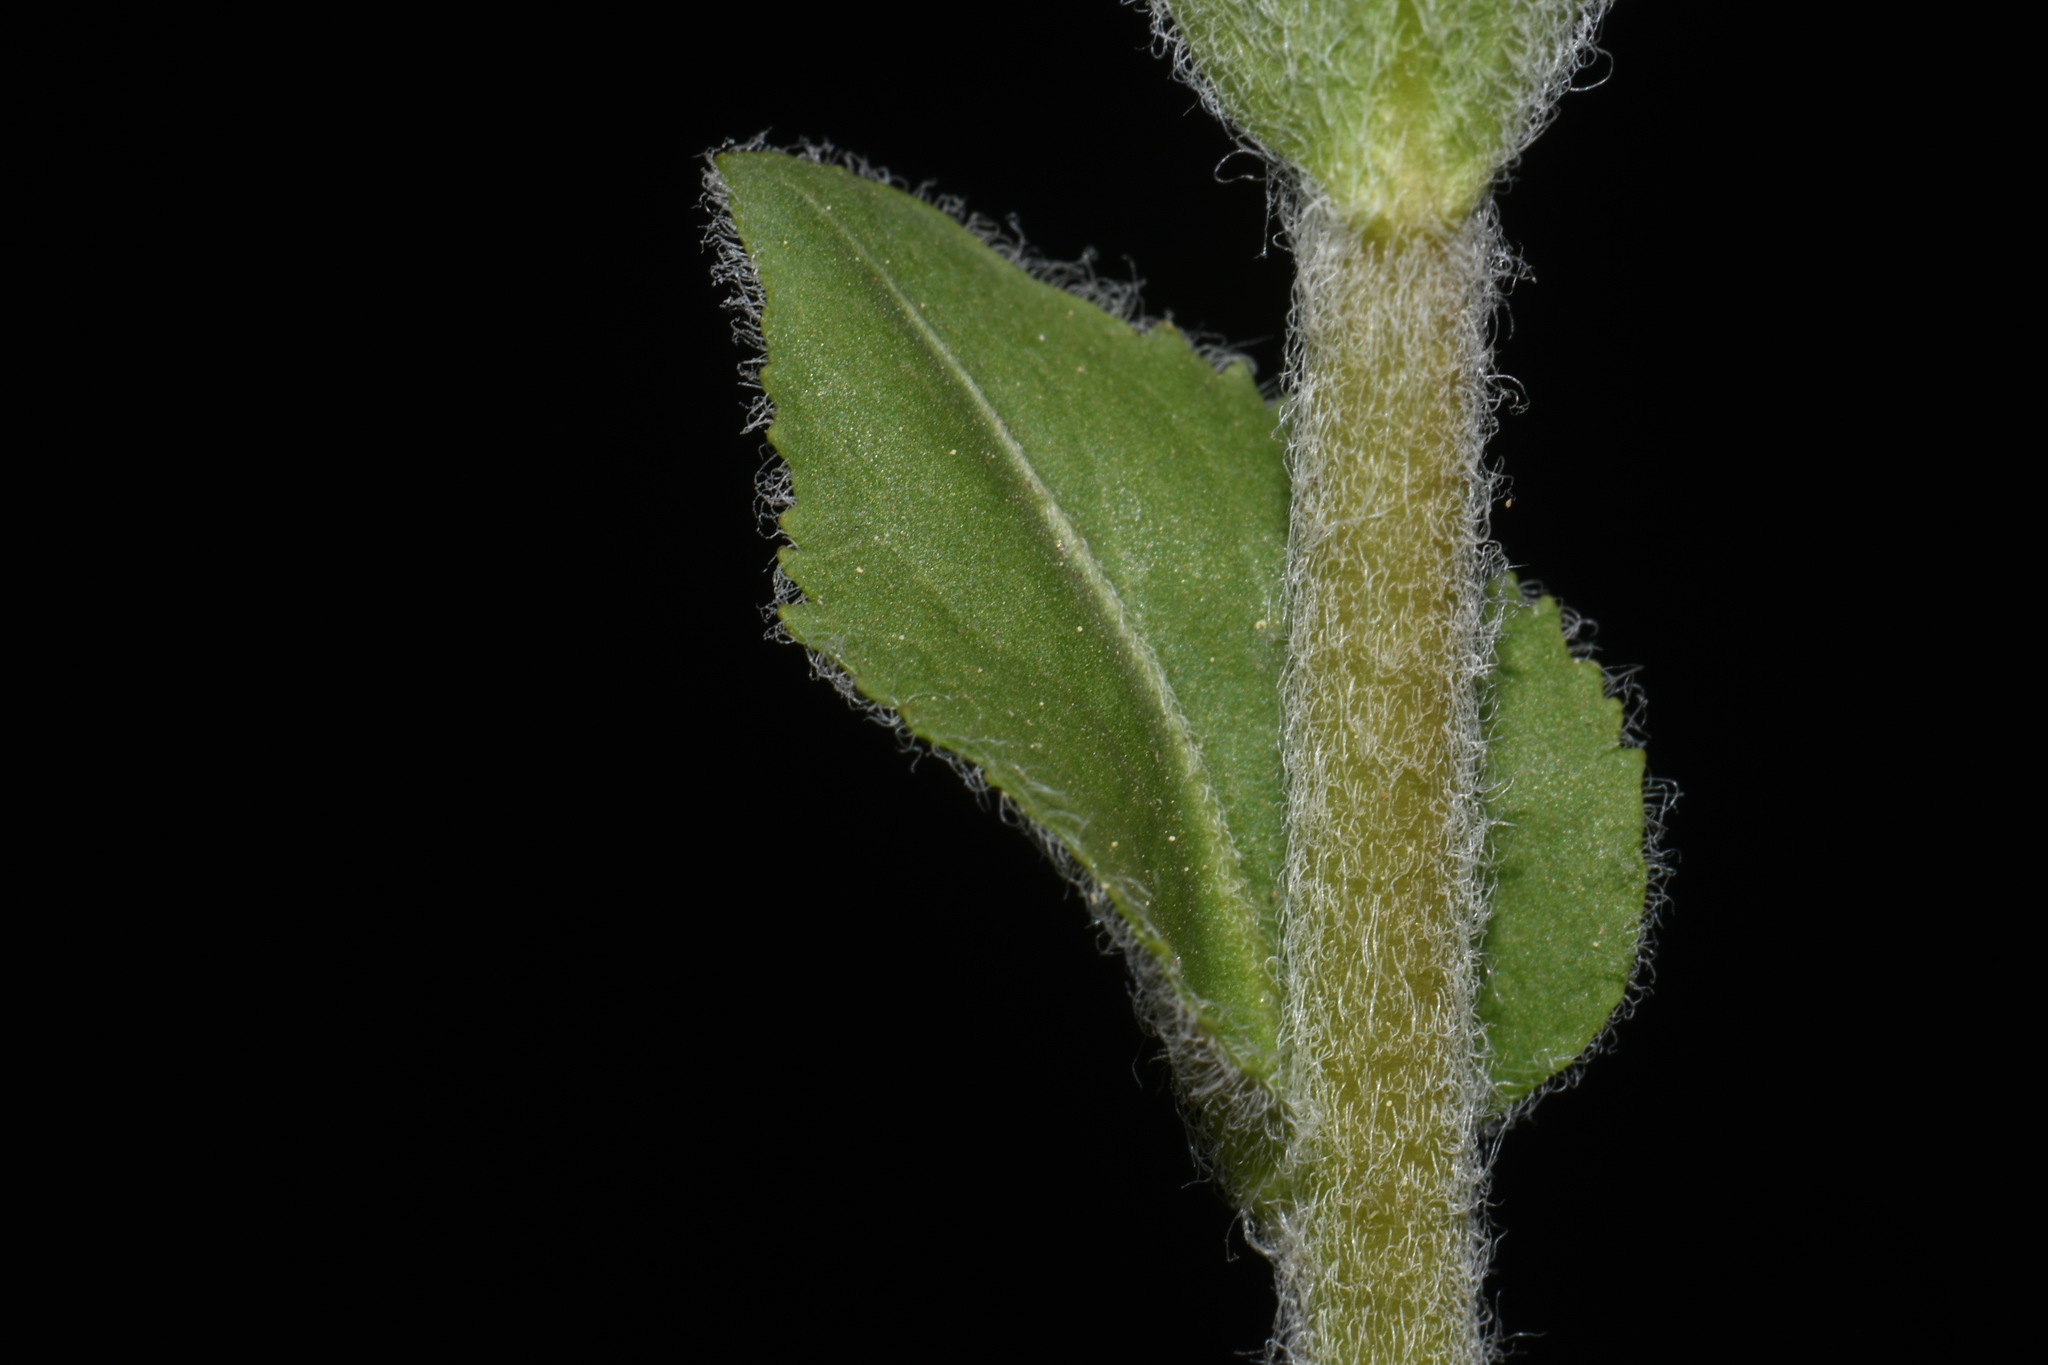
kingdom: Plantae
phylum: Tracheophyta
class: Magnoliopsida
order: Lamiales
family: Plantaginaceae
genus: Veronica
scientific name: Veronica plantaginea
